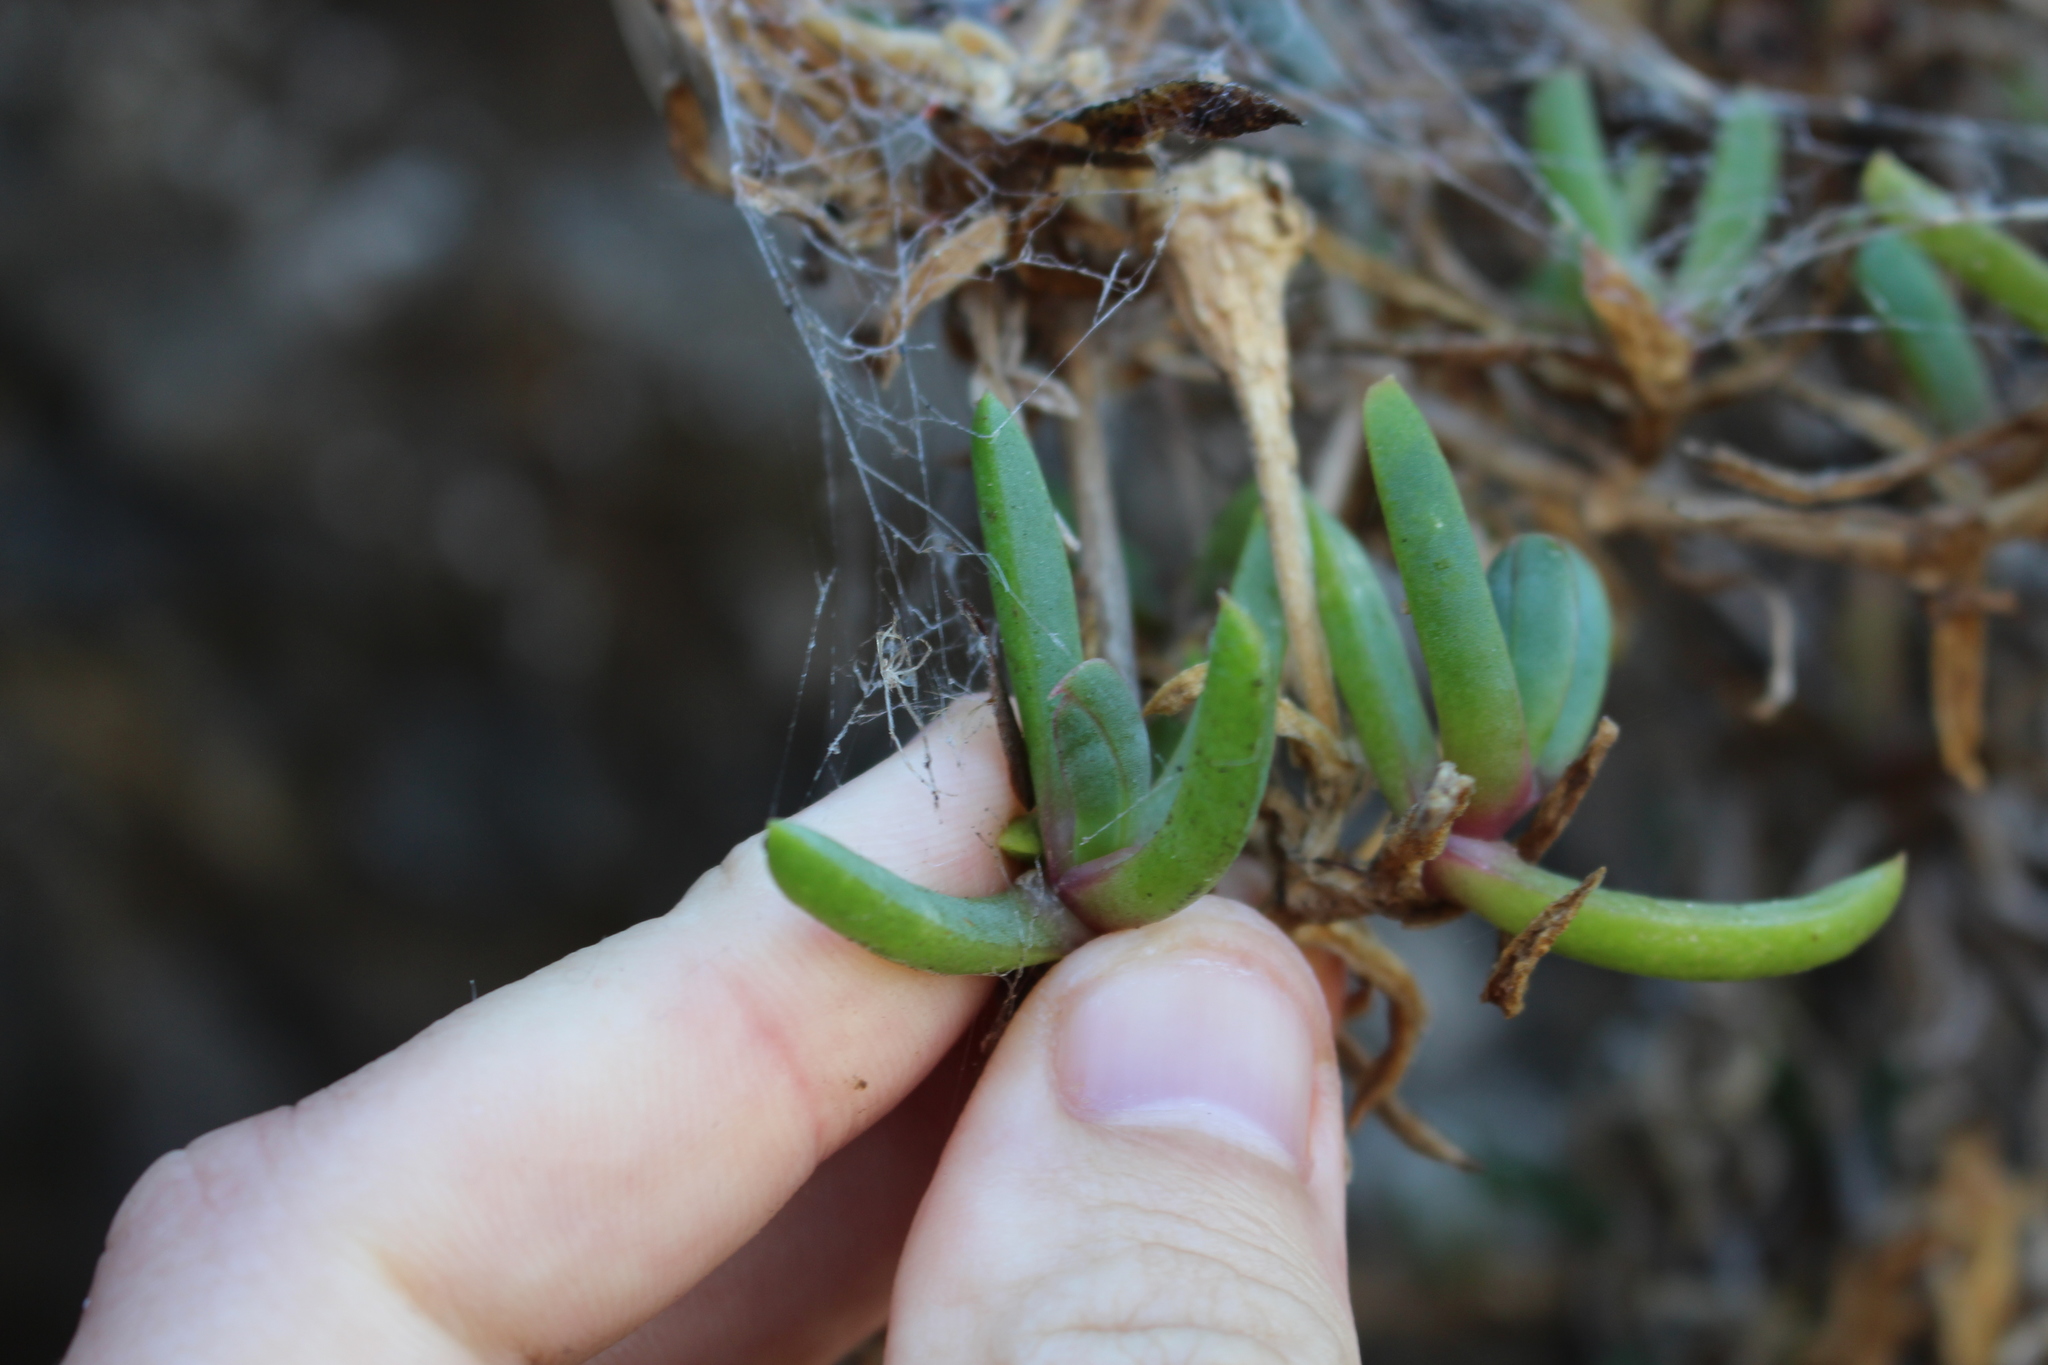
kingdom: Plantae
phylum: Tracheophyta
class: Magnoliopsida
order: Caryophyllales
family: Aizoaceae
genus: Disphyma
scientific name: Disphyma australe
